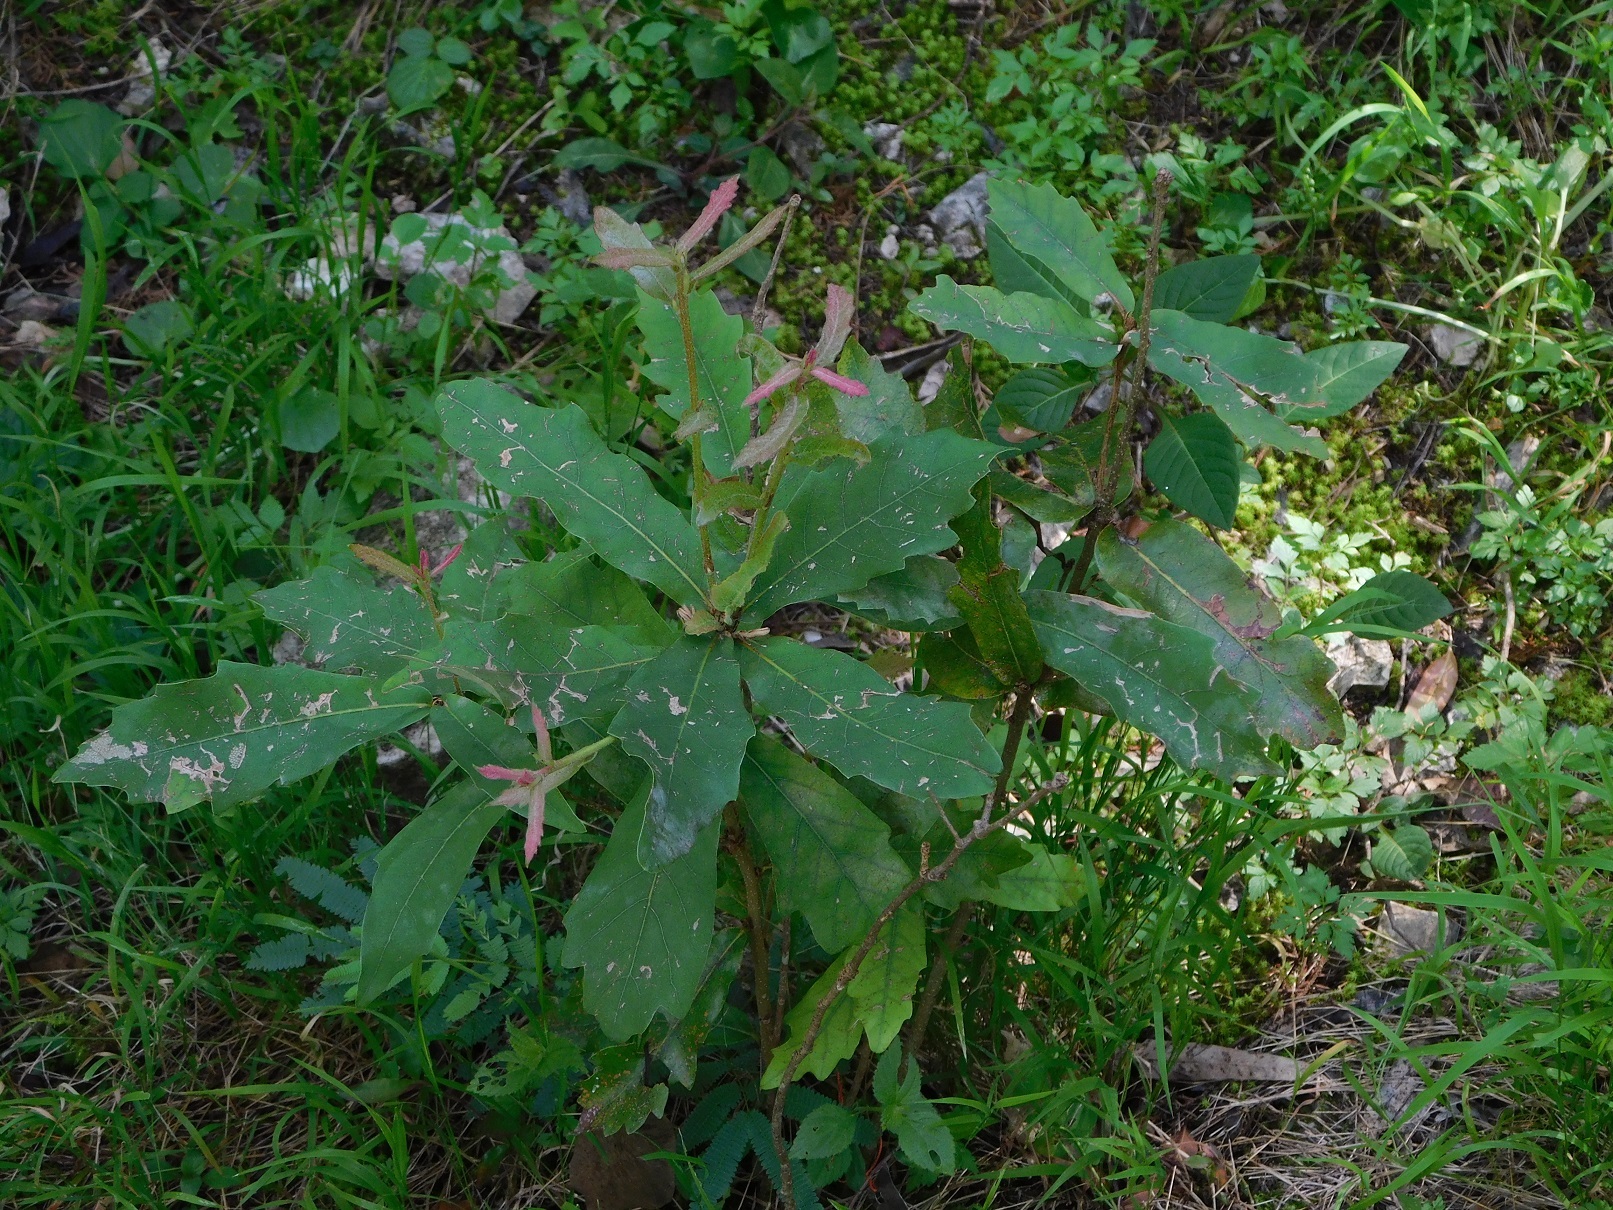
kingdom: Plantae
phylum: Tracheophyta
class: Magnoliopsida
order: Fagales
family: Fagaceae
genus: Quercus
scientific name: Quercus sebifera
